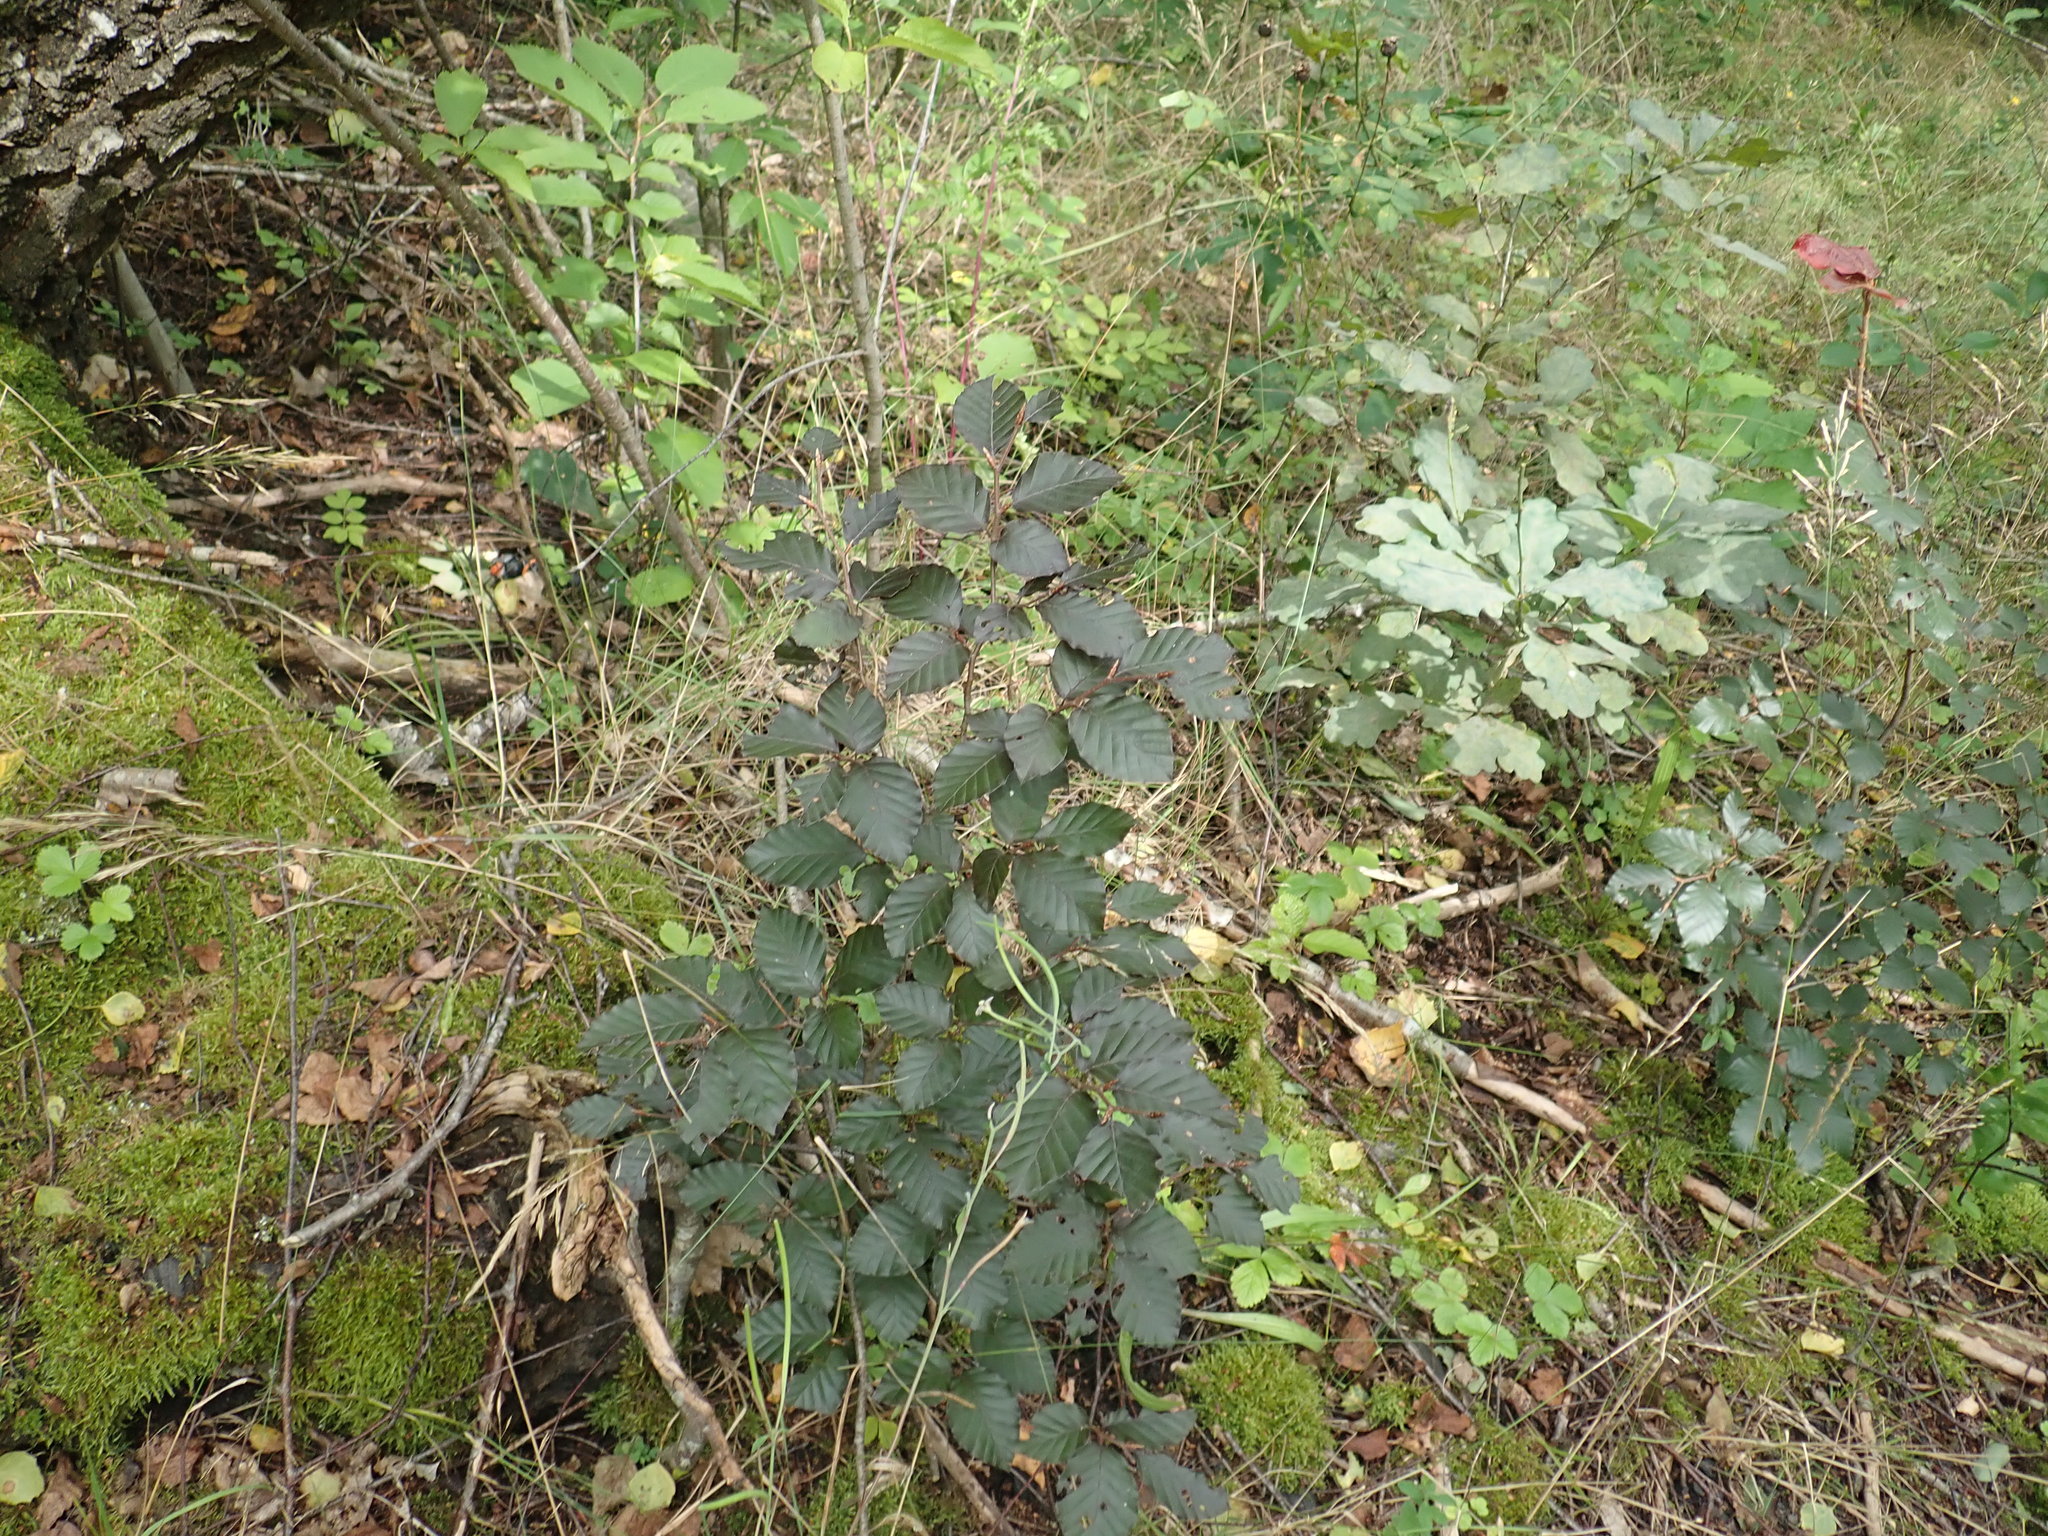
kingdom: Plantae
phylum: Tracheophyta
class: Magnoliopsida
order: Fagales
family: Fagaceae
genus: Fagus
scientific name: Fagus sylvatica
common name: Beech
